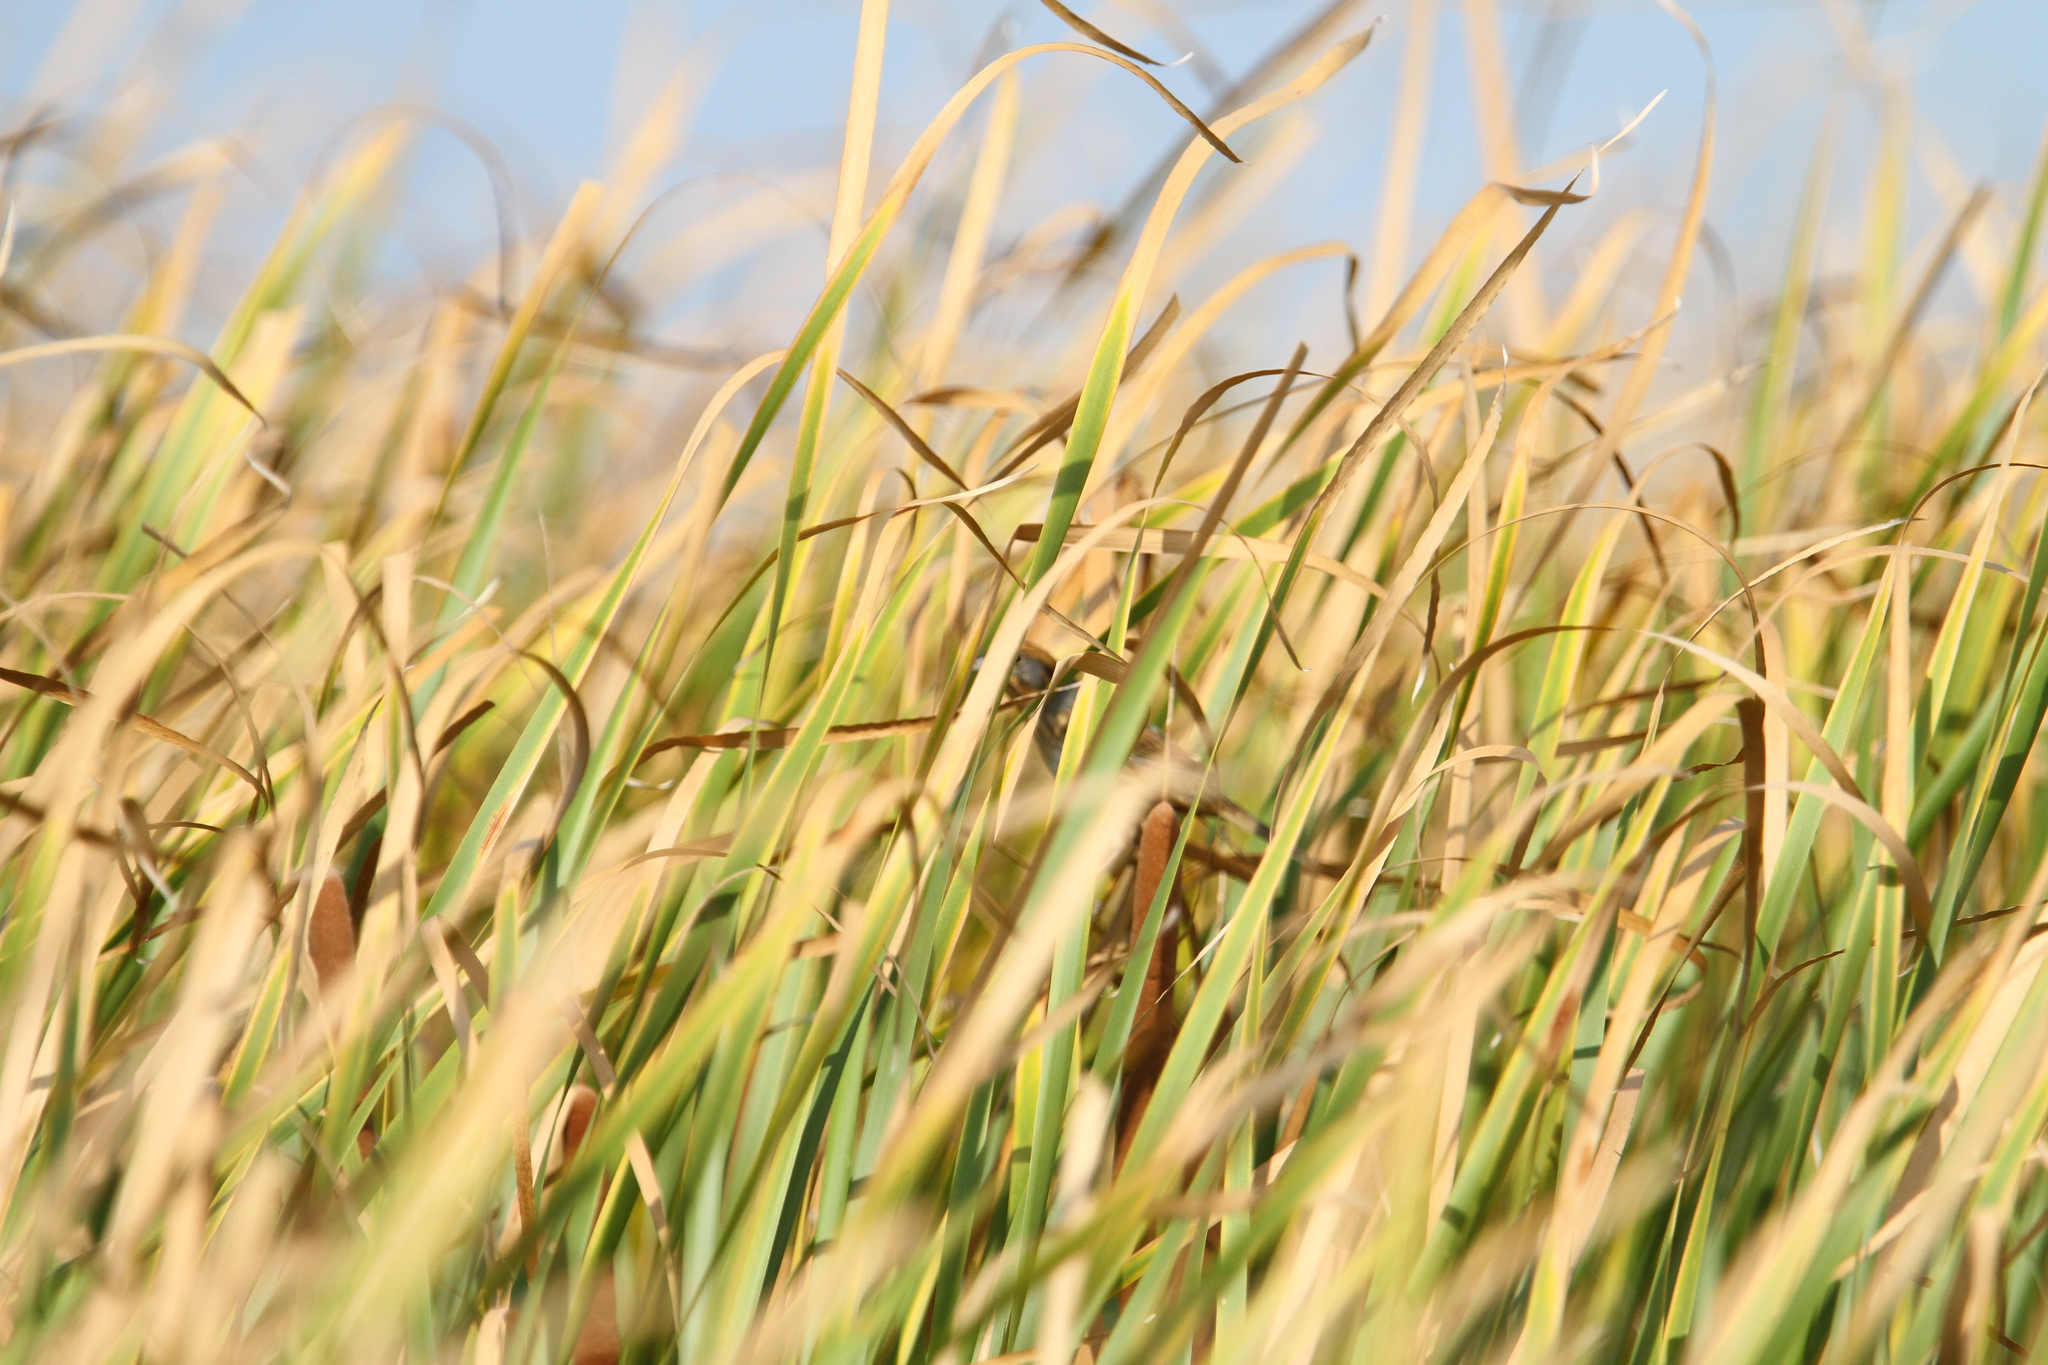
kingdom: Animalia
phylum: Chordata
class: Aves
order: Passeriformes
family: Passerellidae
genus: Ammospiza
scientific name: Ammospiza nelsoni
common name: Nelson's sparrow
